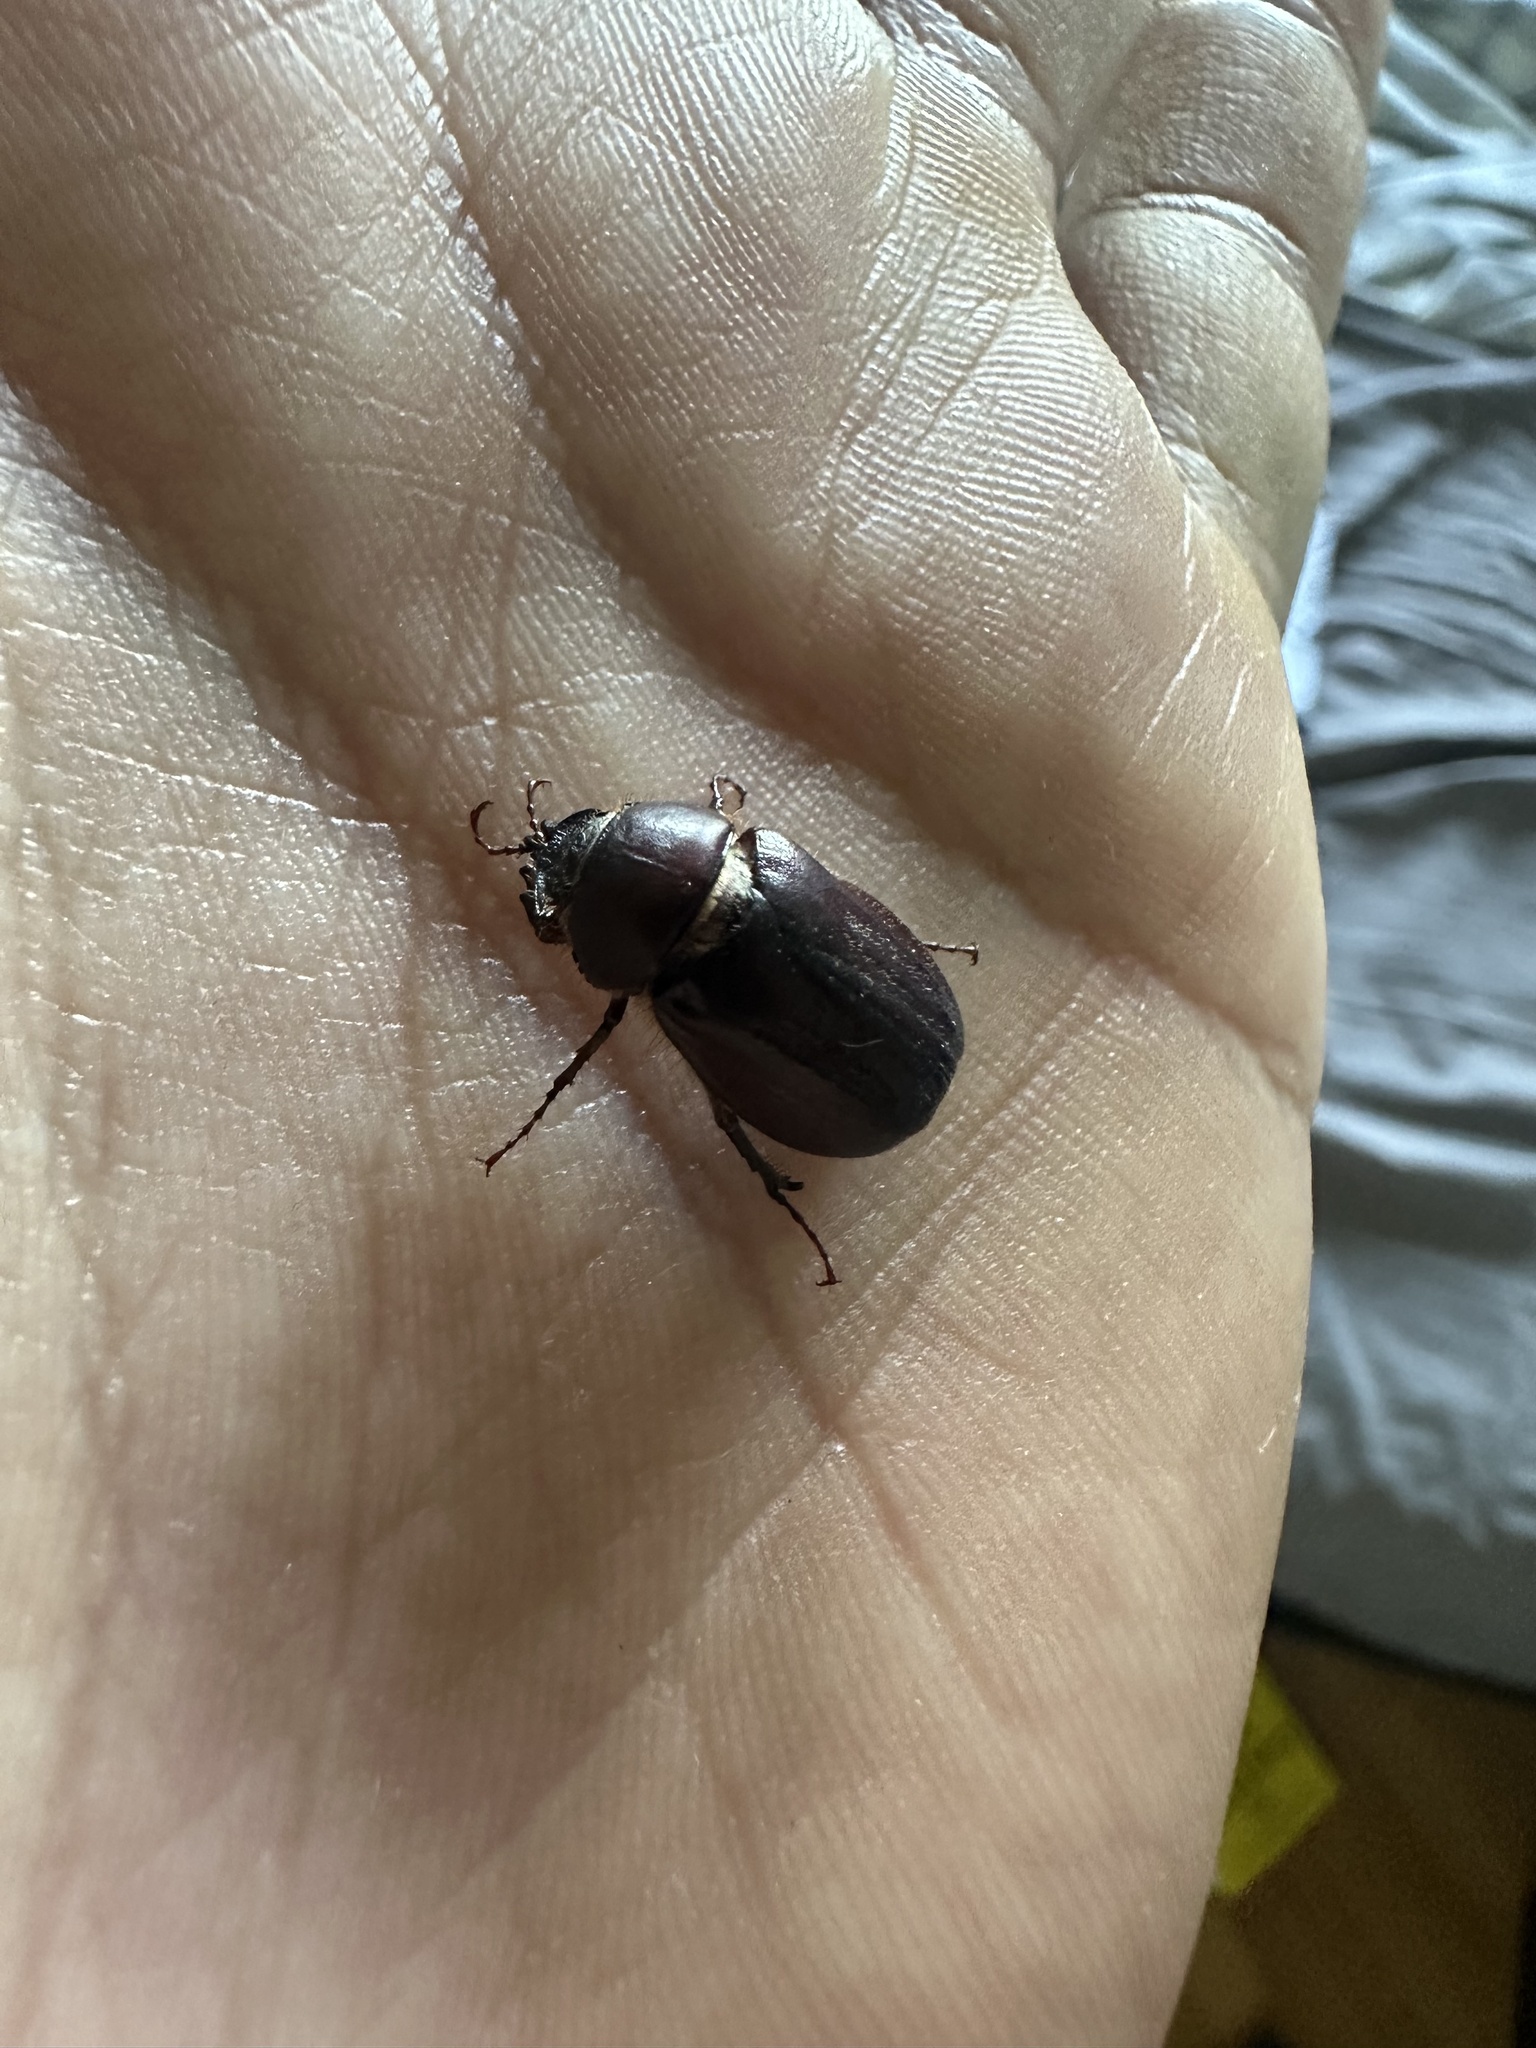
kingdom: Animalia
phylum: Arthropoda
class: Insecta
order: Coleoptera
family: Scarabaeidae
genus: Aplidia
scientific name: Aplidia transversa
